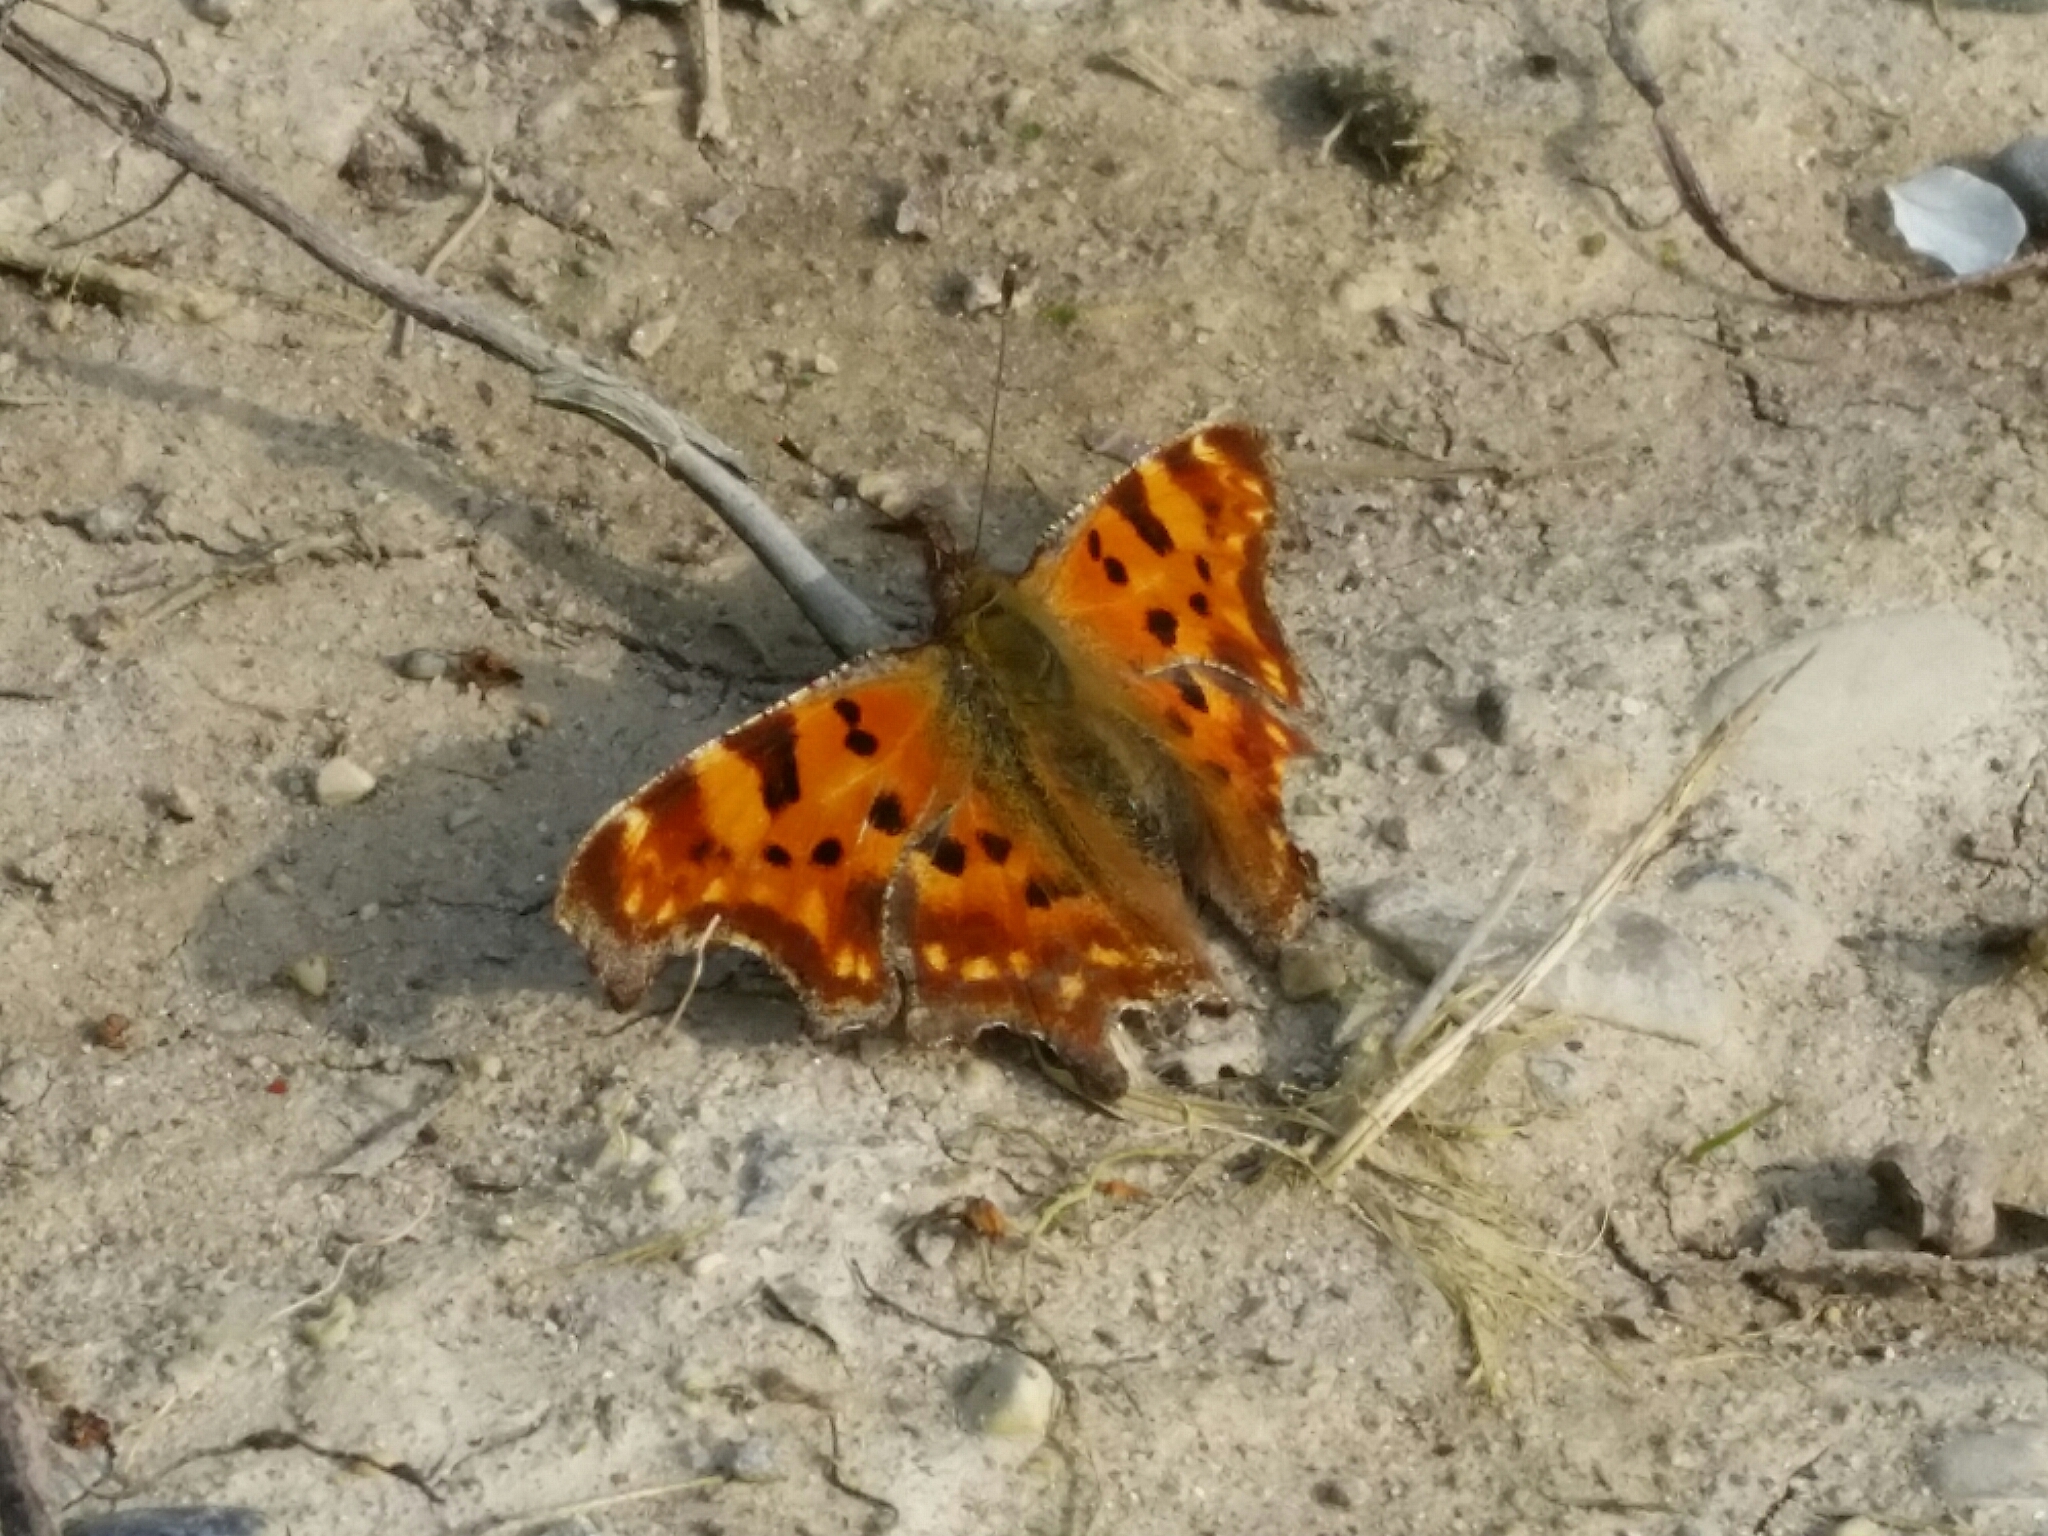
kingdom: Animalia
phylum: Arthropoda
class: Insecta
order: Lepidoptera
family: Nymphalidae
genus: Polygonia
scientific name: Polygonia c-album
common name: Comma
